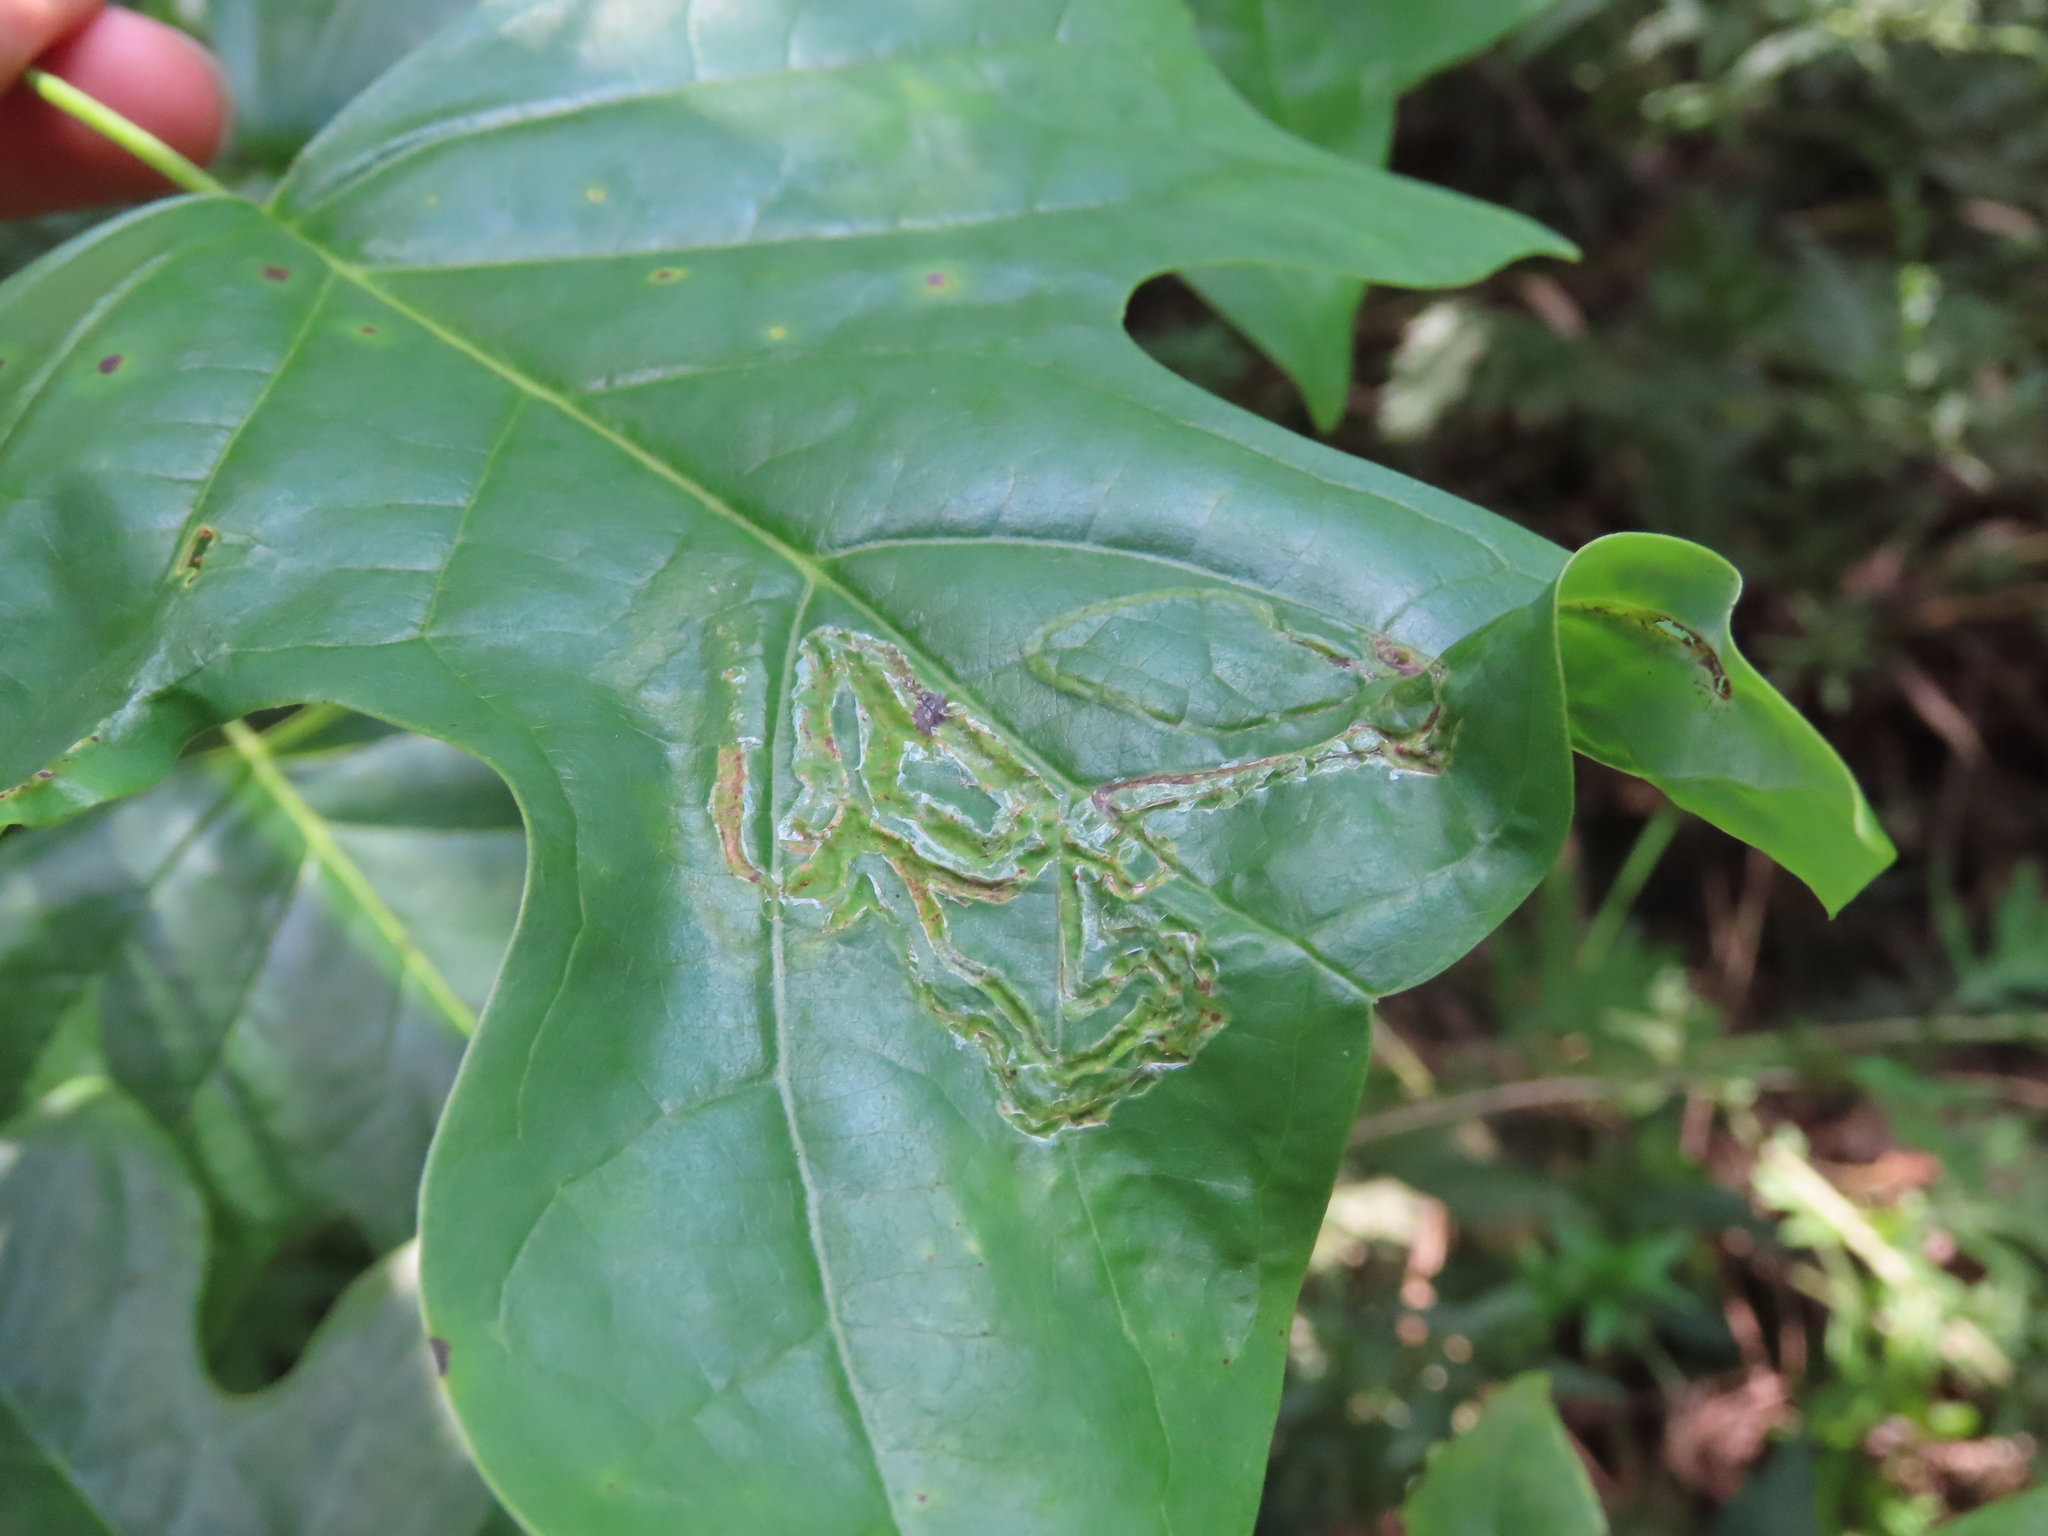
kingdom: Animalia
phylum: Arthropoda
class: Insecta
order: Lepidoptera
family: Gracillariidae
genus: Phyllocnistis
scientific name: Phyllocnistis liriodendronella
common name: Tulip tree leaf miner
